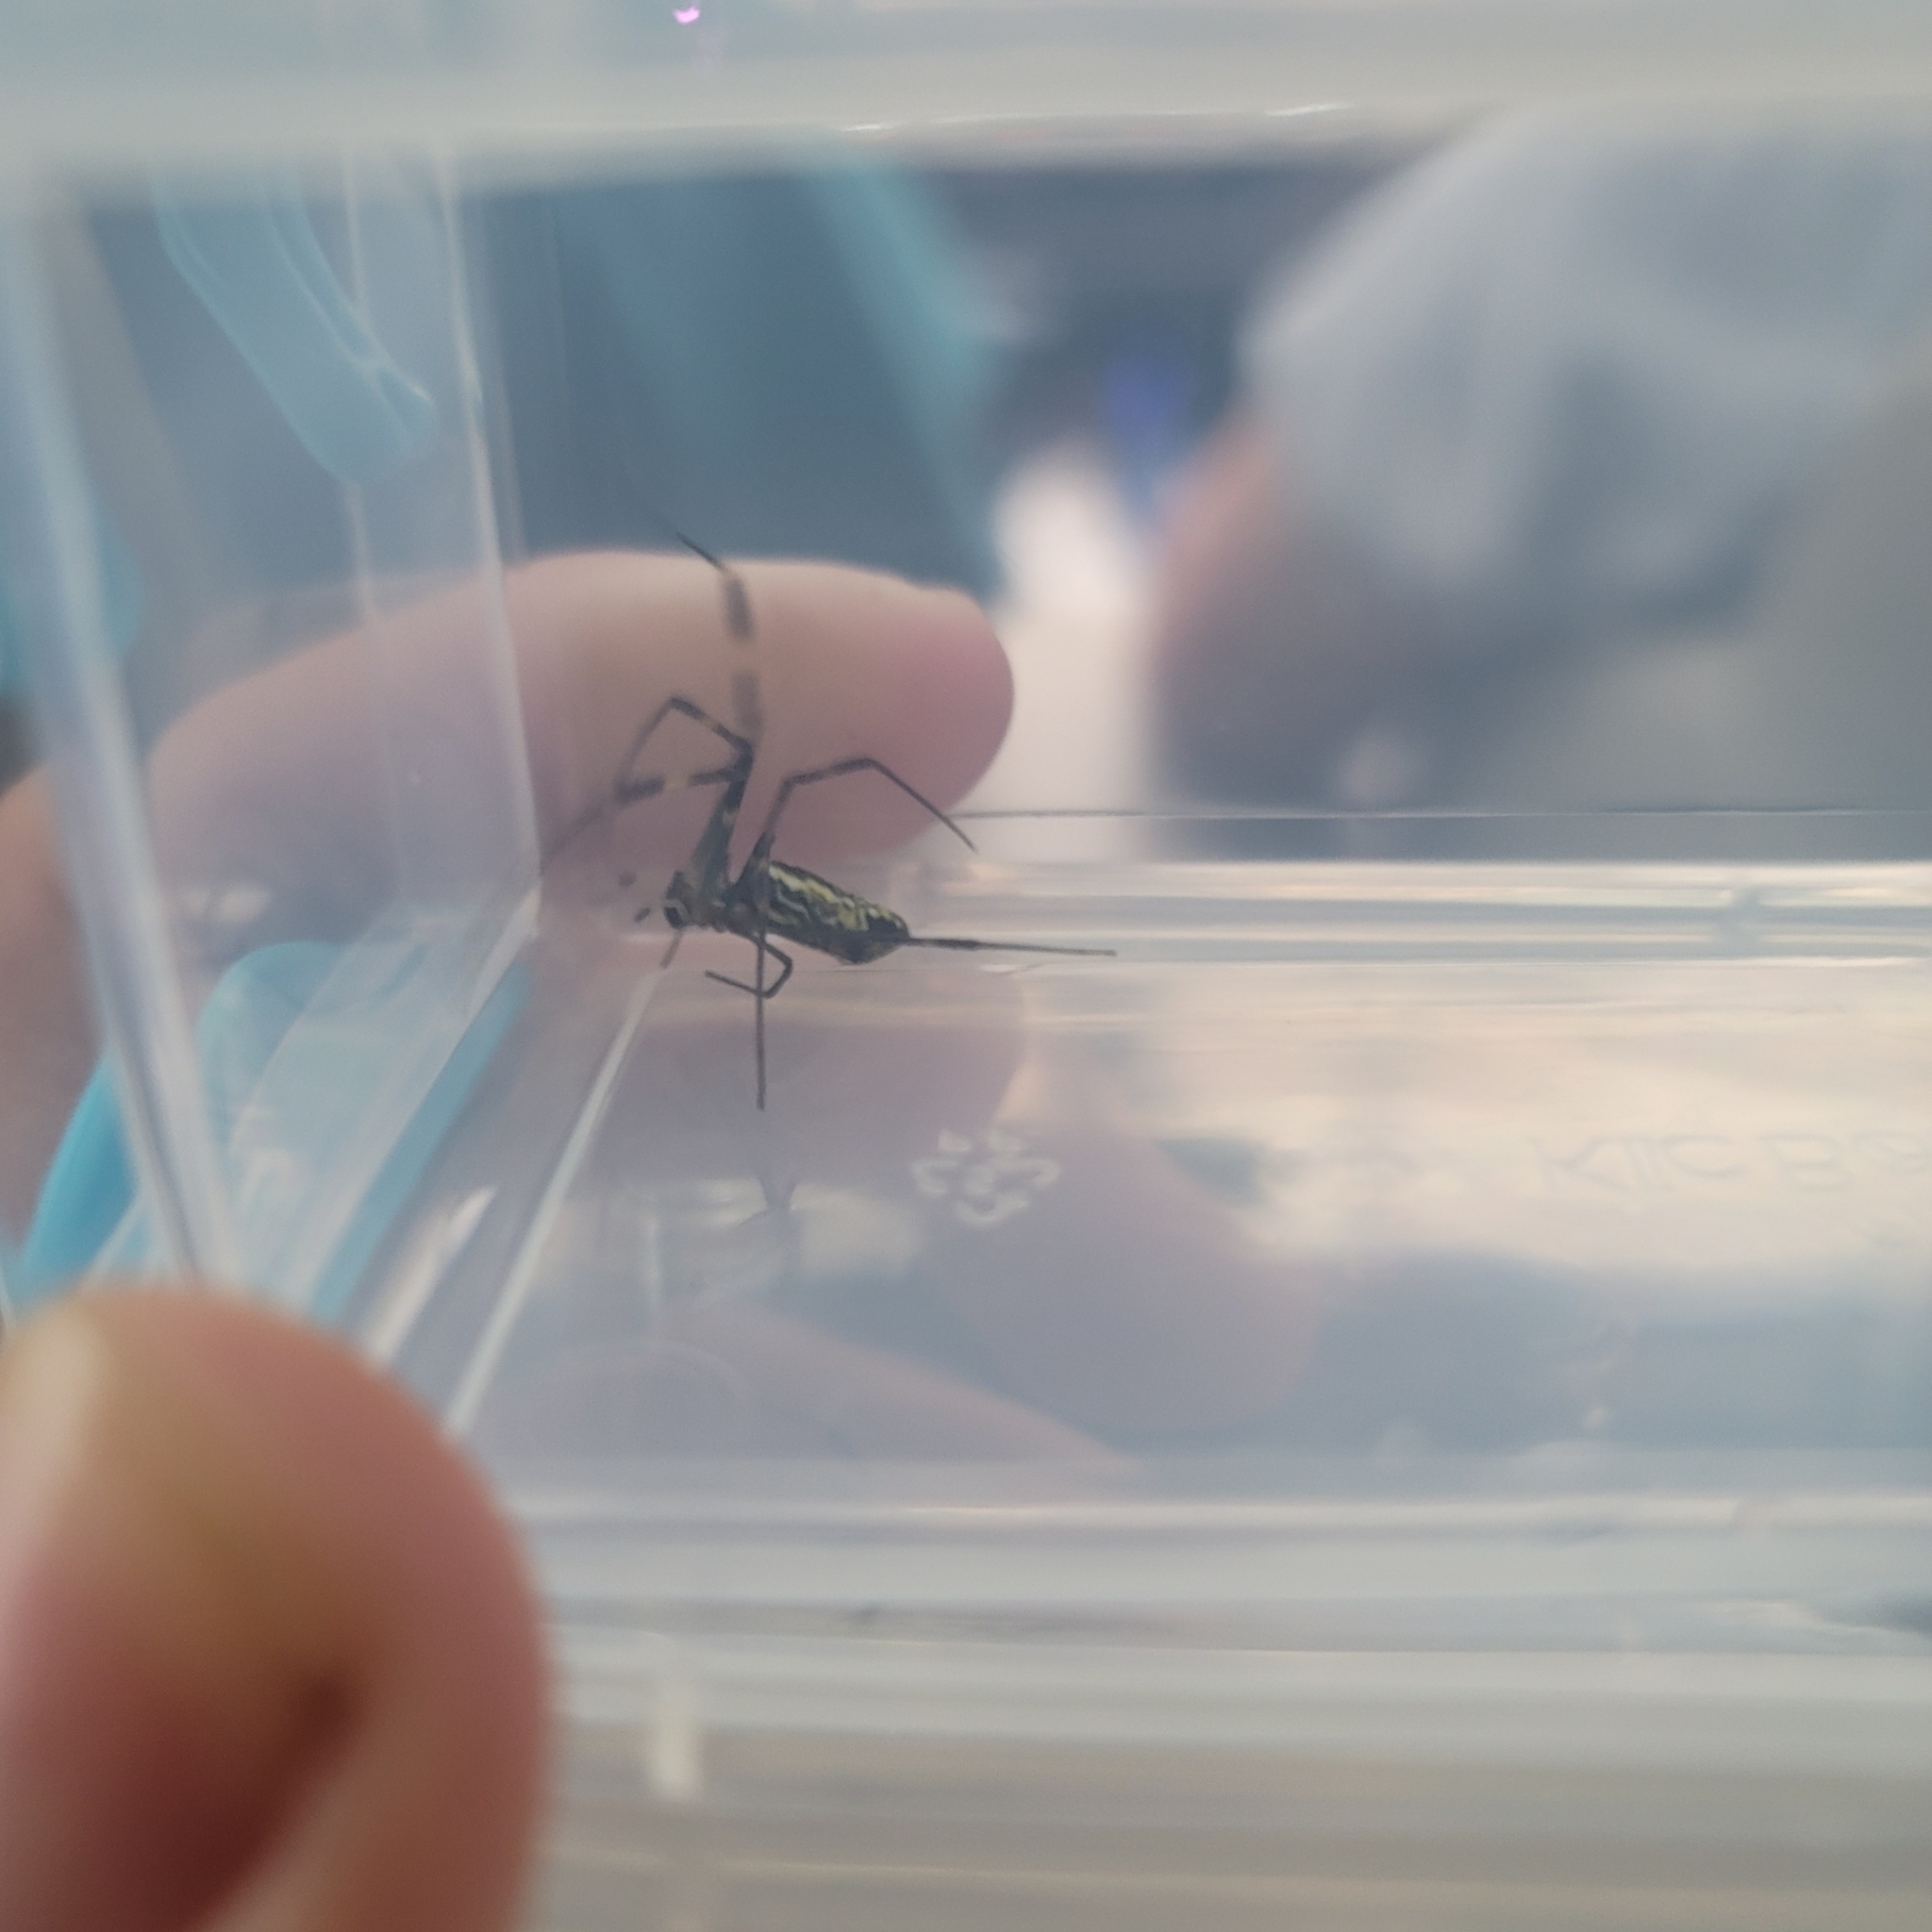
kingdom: Animalia
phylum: Arthropoda
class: Arachnida
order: Araneae
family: Araneidae
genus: Trichonephila
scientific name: Trichonephila clavata
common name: Jorō spider
